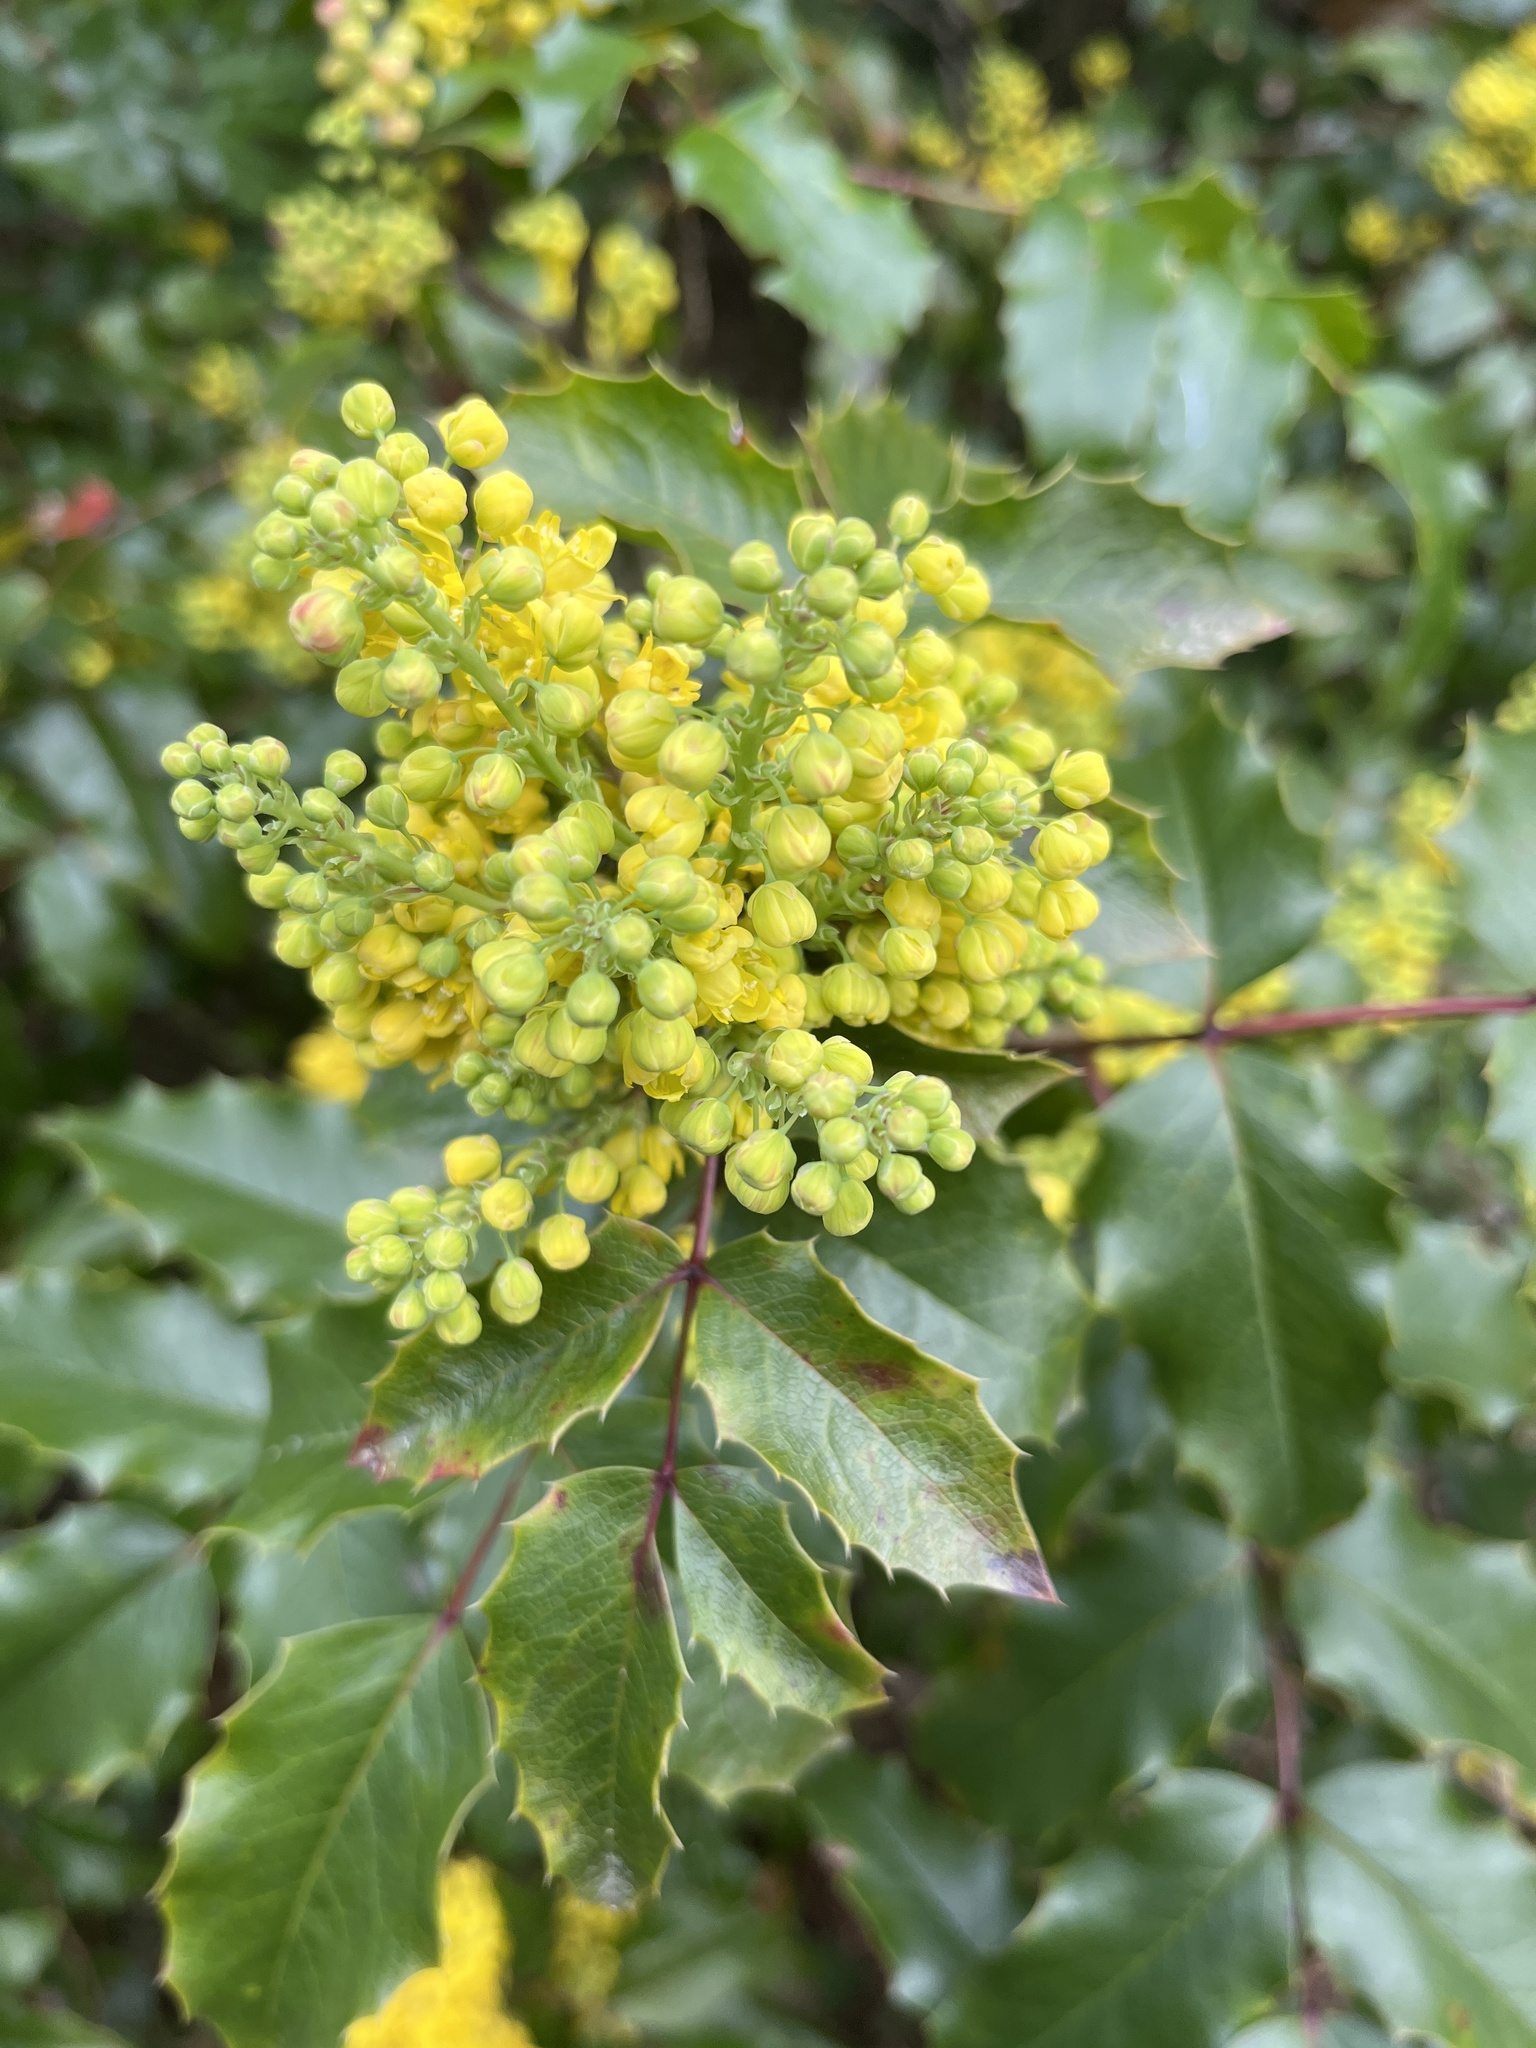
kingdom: Plantae
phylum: Tracheophyta
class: Magnoliopsida
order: Ranunculales
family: Berberidaceae
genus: Mahonia
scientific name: Mahonia aquifolium
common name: Oregon-grape
